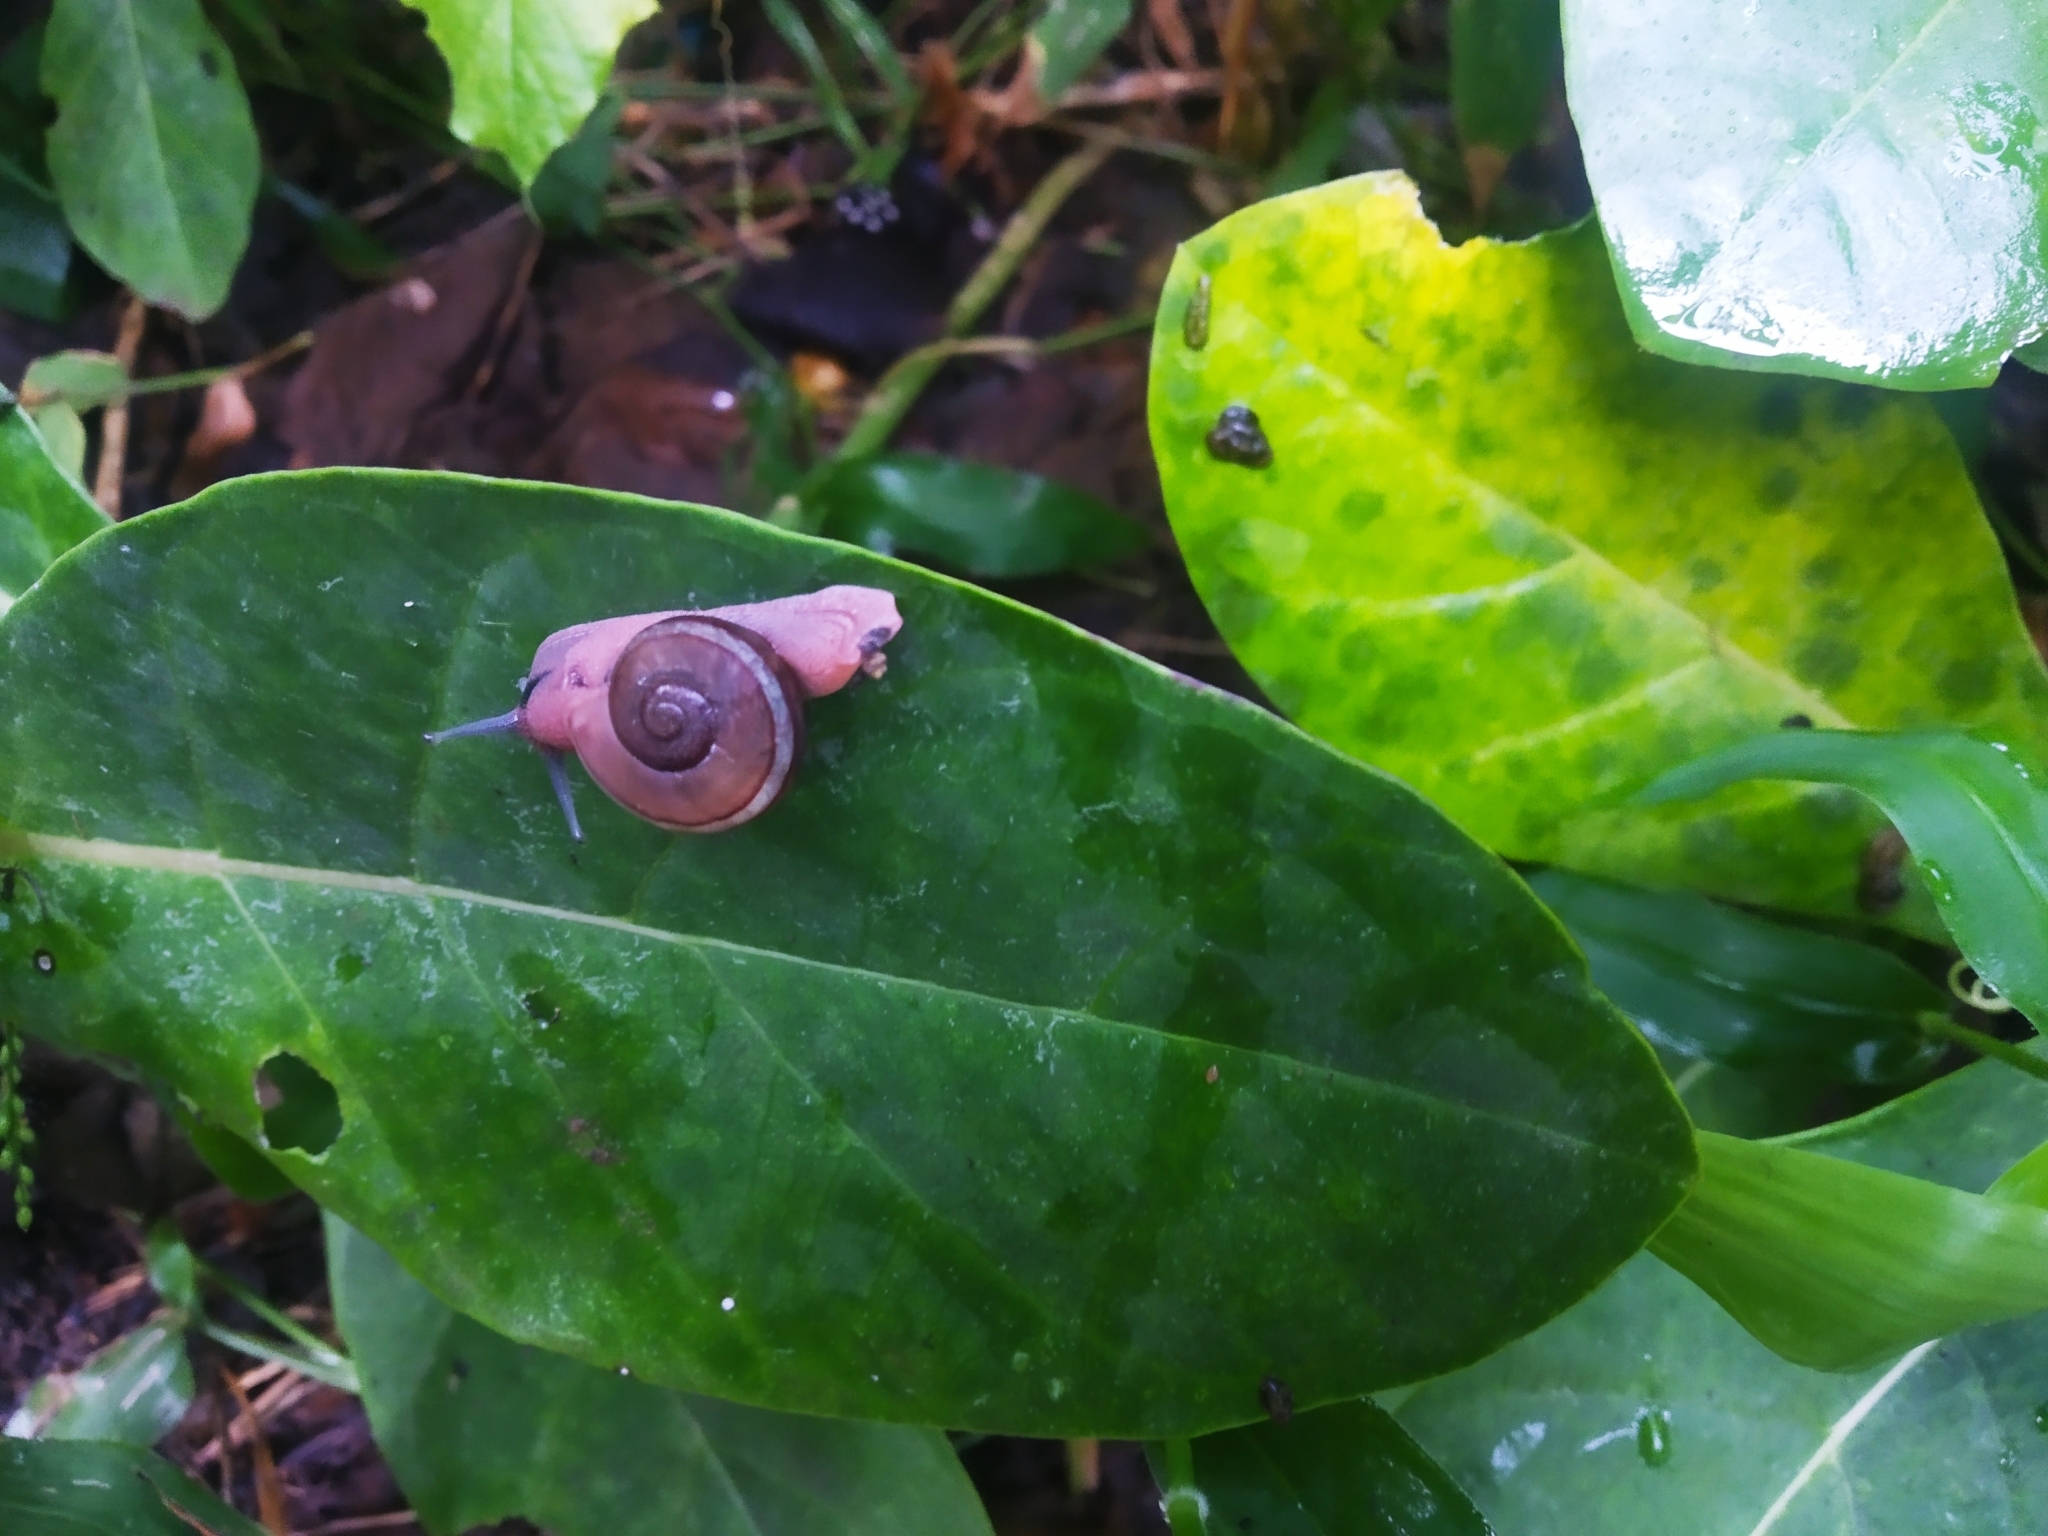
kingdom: Animalia
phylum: Mollusca
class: Gastropoda
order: Stylommatophora
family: Ariophantidae
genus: Ariophanta
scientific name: Ariophanta exilis
